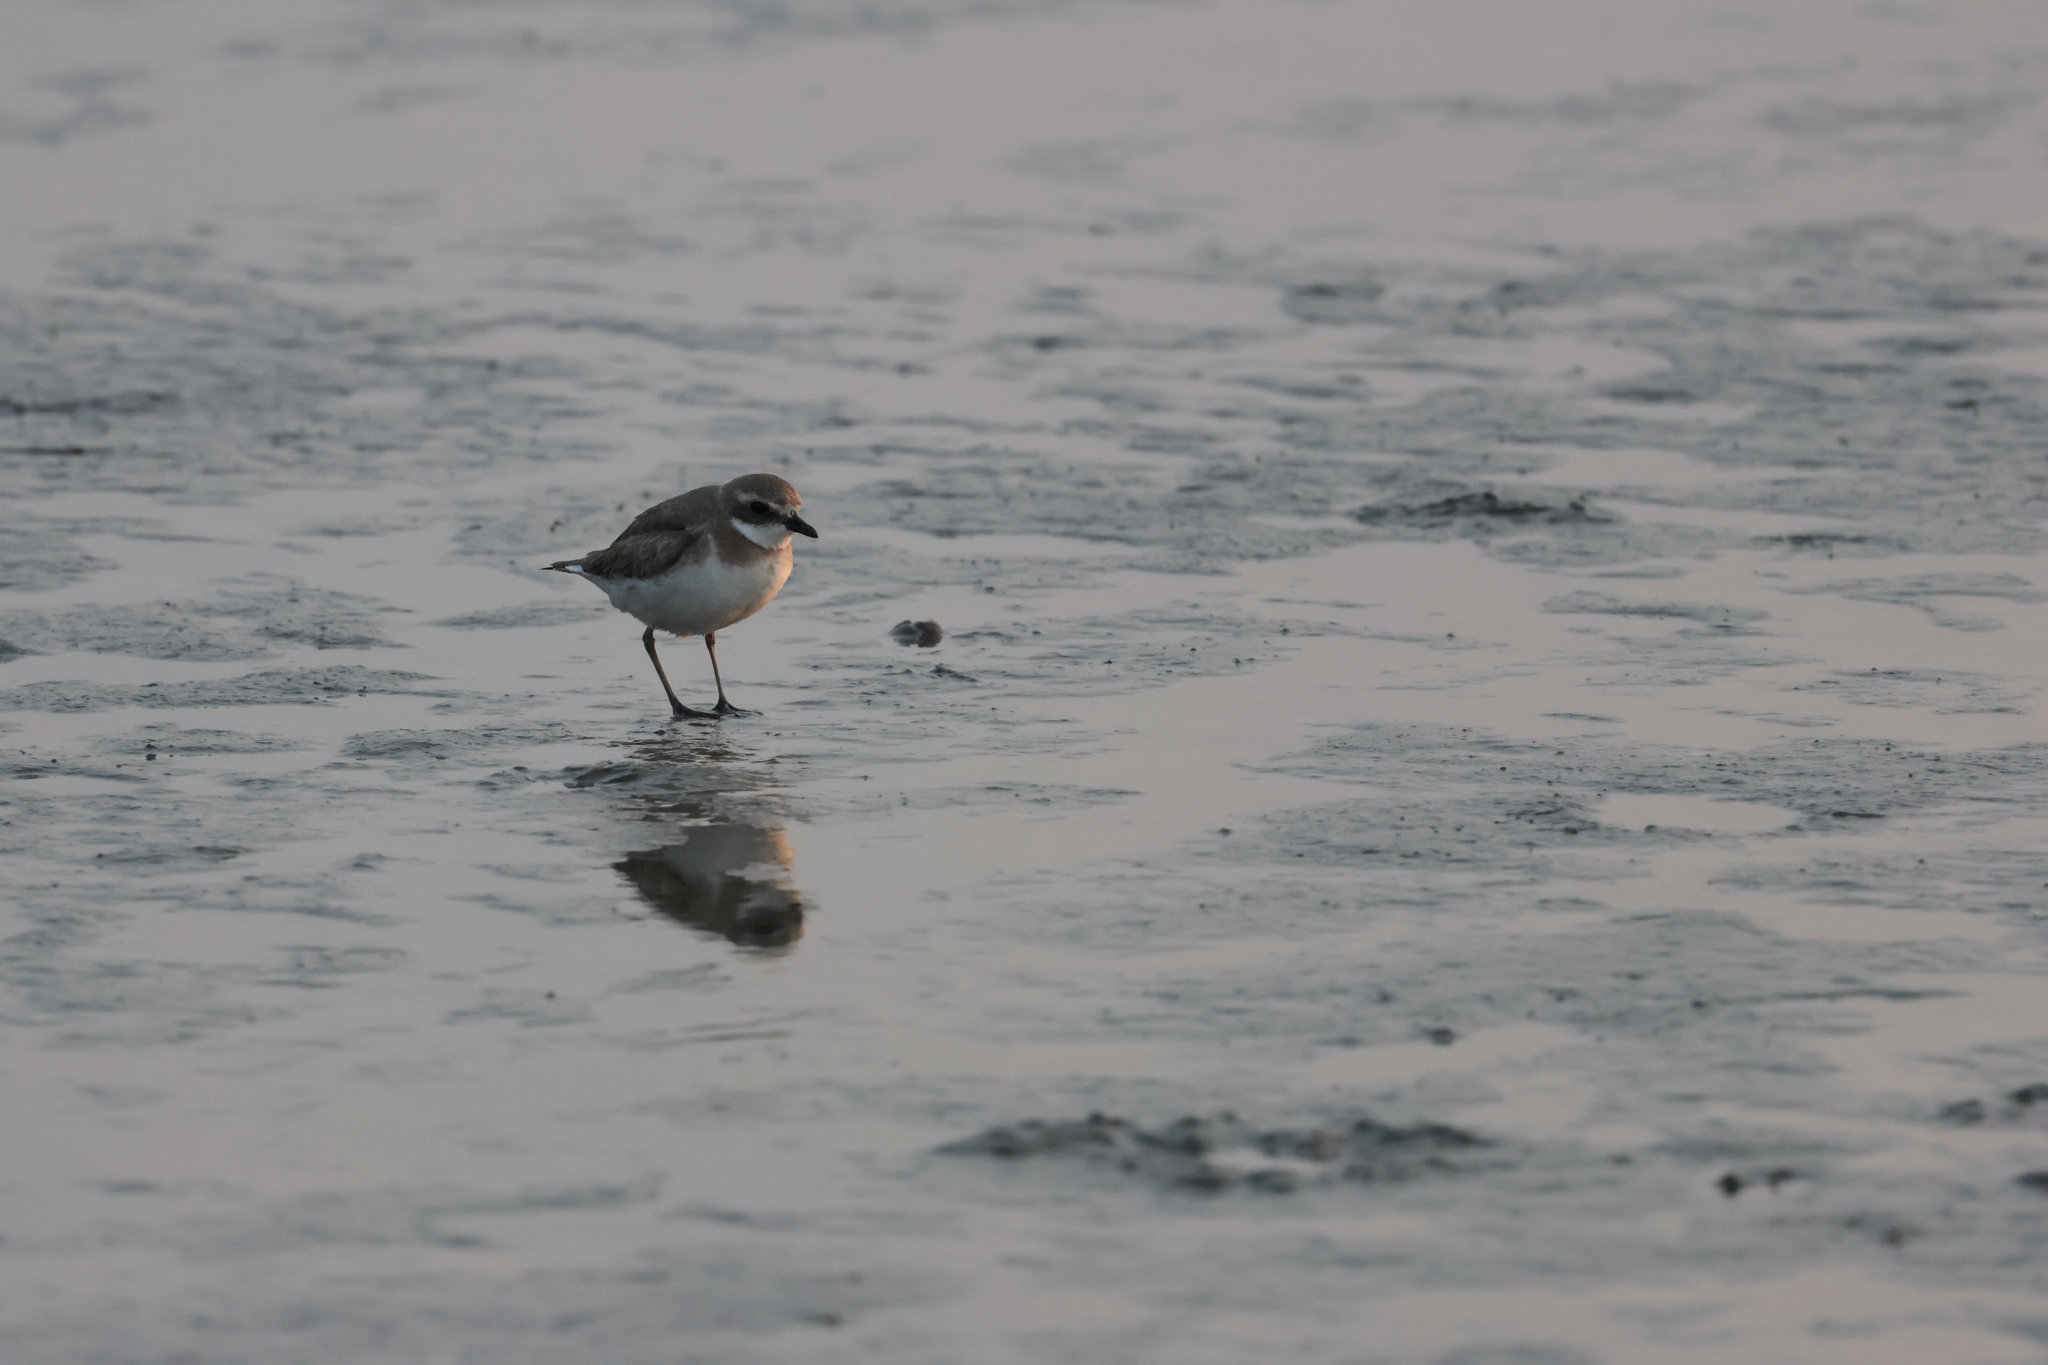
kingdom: Animalia
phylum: Chordata
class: Aves
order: Charadriiformes
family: Charadriidae
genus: Anarhynchus
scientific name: Anarhynchus
